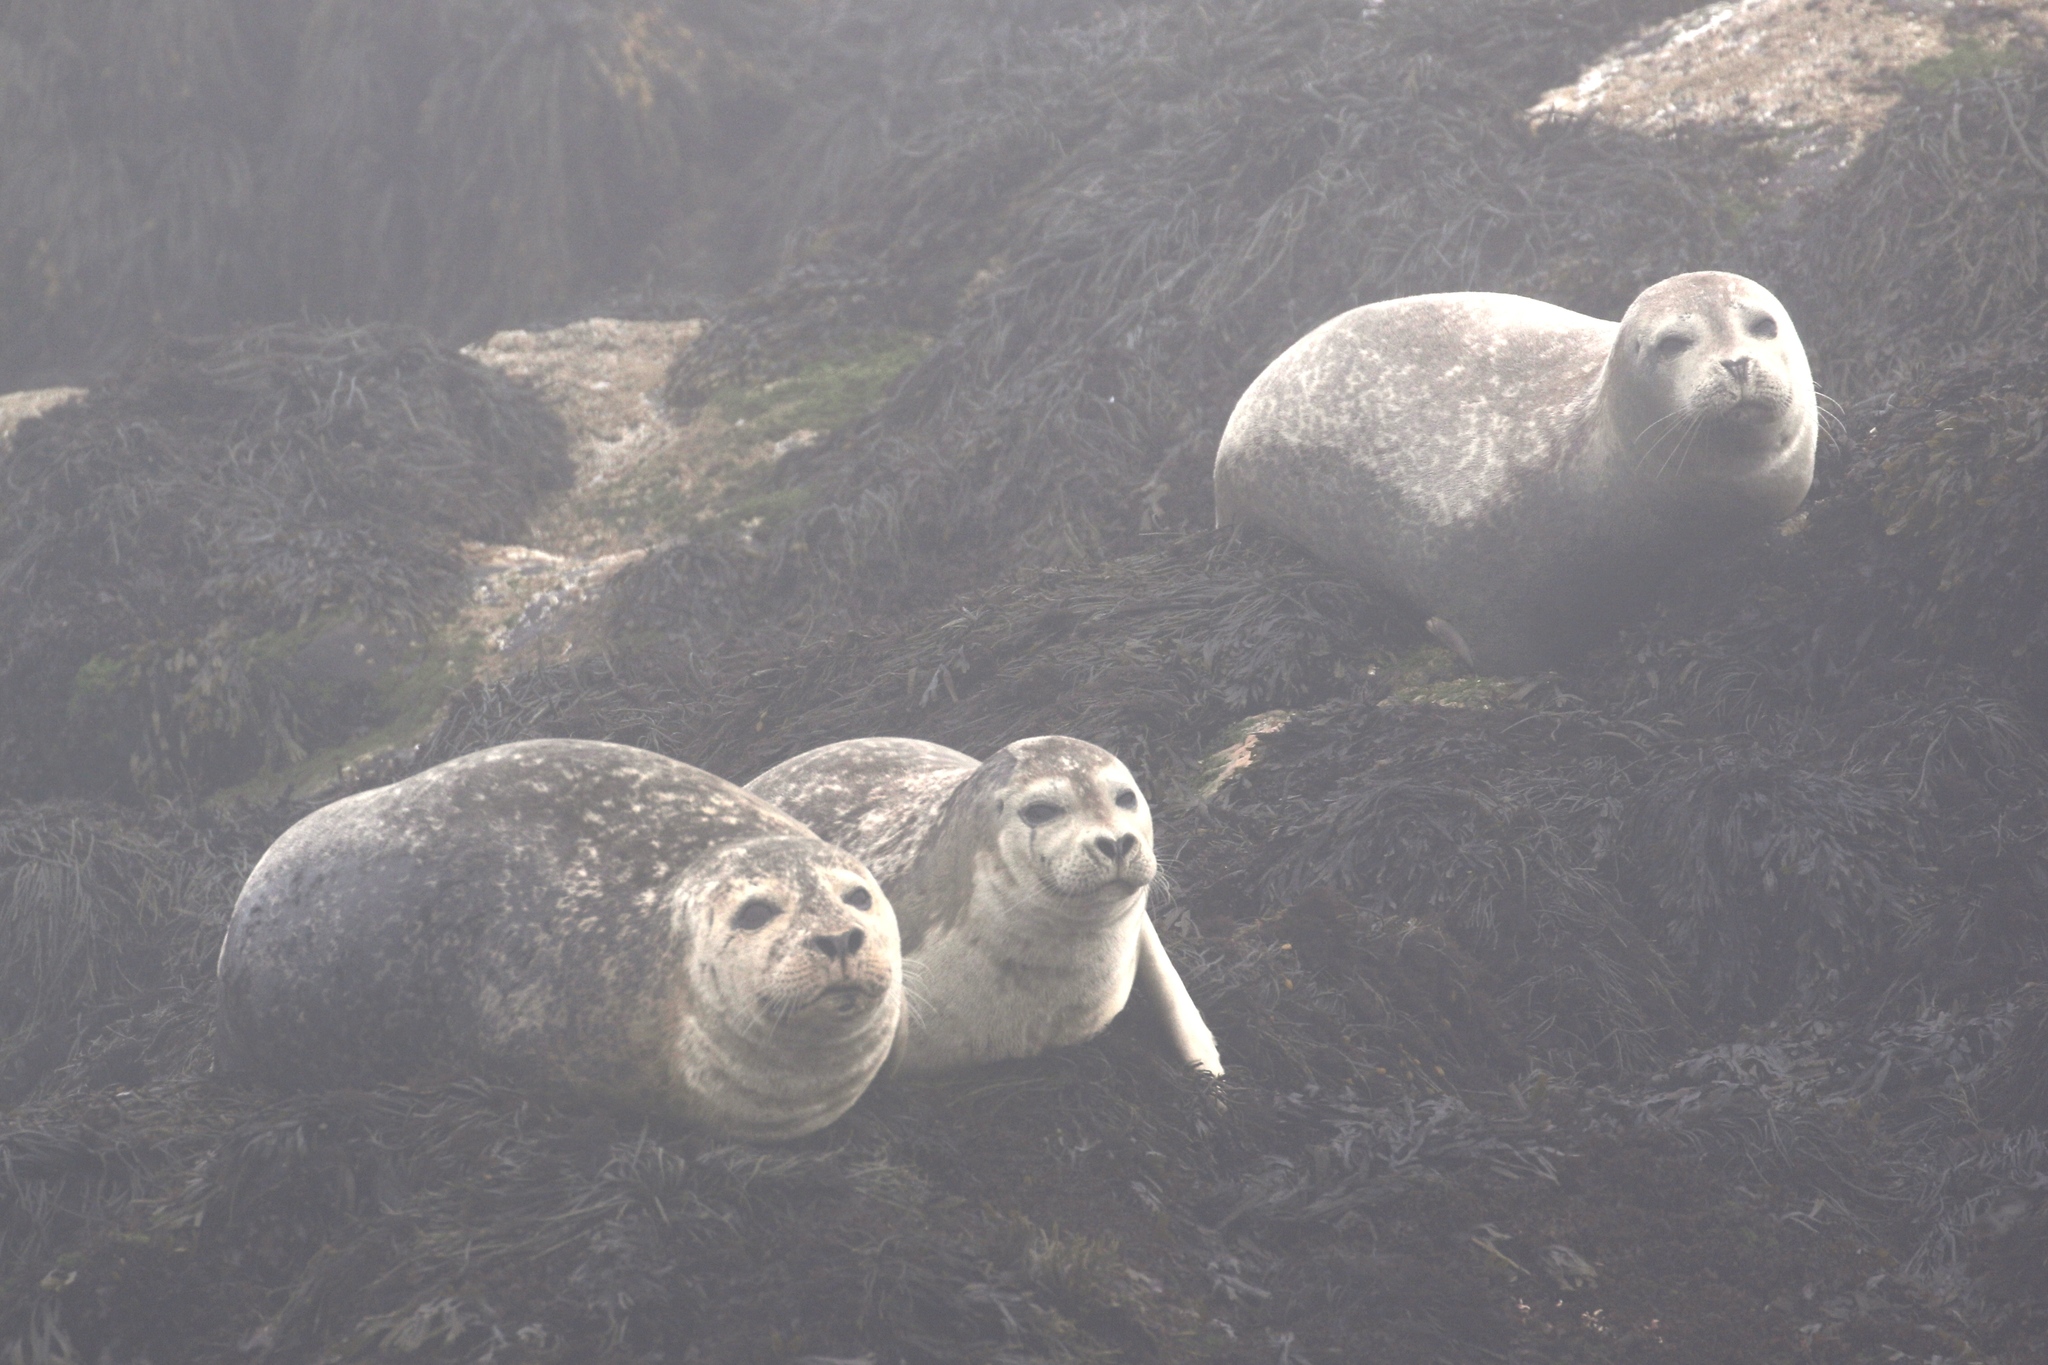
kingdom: Animalia
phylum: Chordata
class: Mammalia
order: Carnivora
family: Phocidae
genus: Phoca
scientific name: Phoca vitulina
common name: Harbor seal
